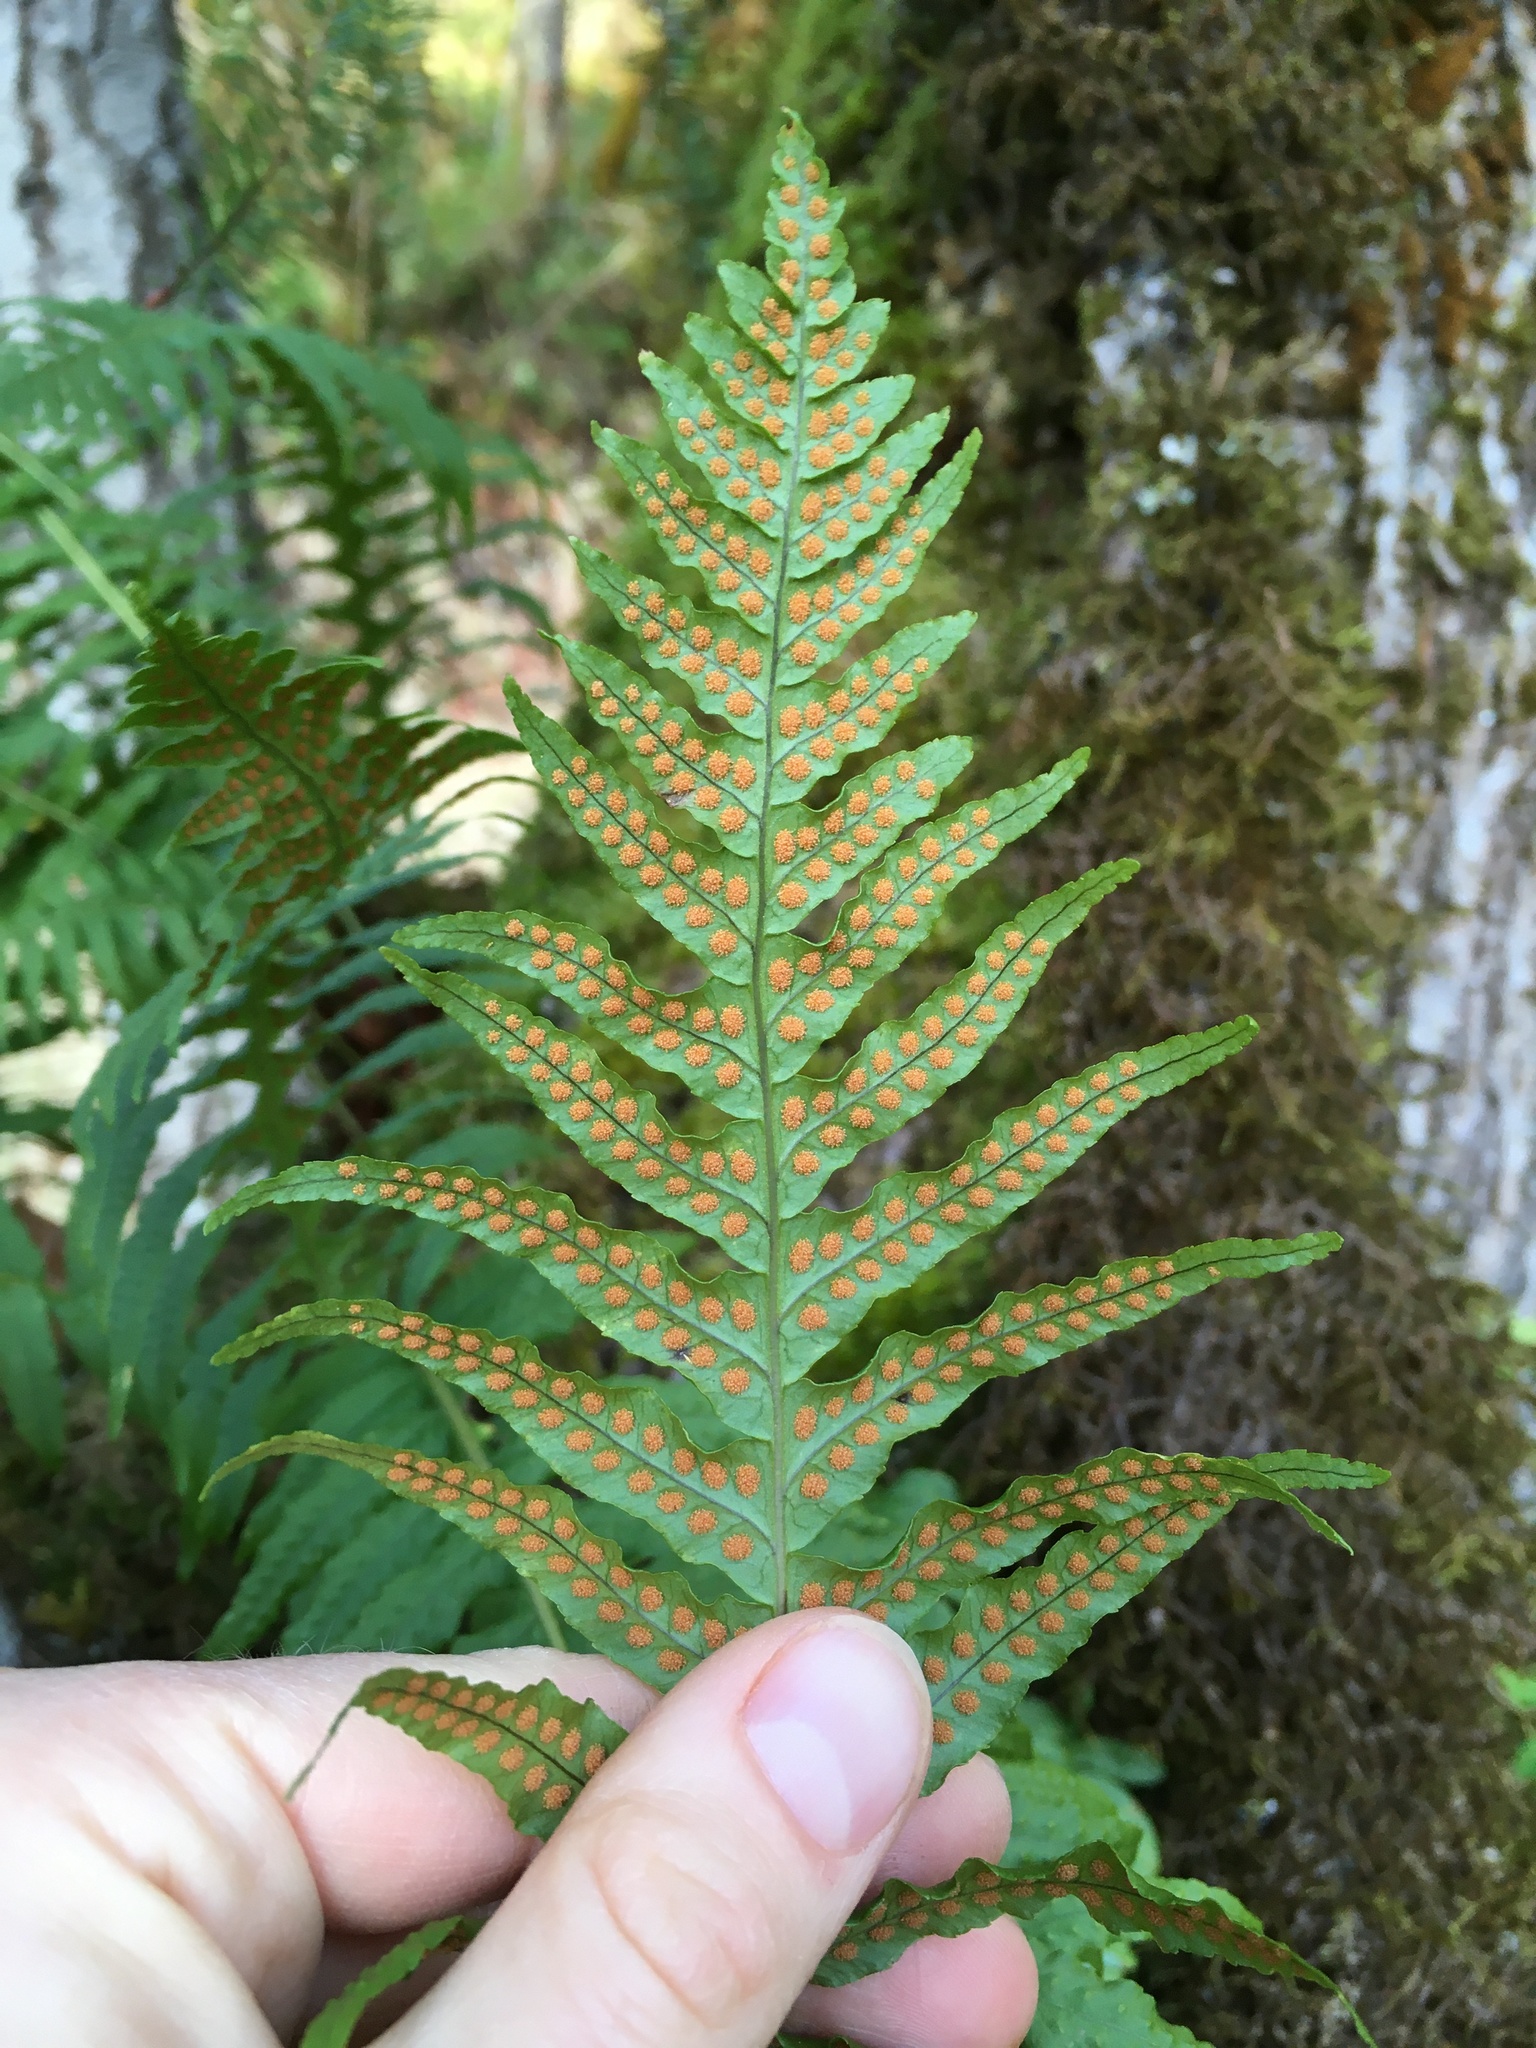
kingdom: Plantae
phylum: Tracheophyta
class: Polypodiopsida
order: Polypodiales
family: Polypodiaceae
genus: Polypodium
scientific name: Polypodium glycyrrhiza
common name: Licorice fern
